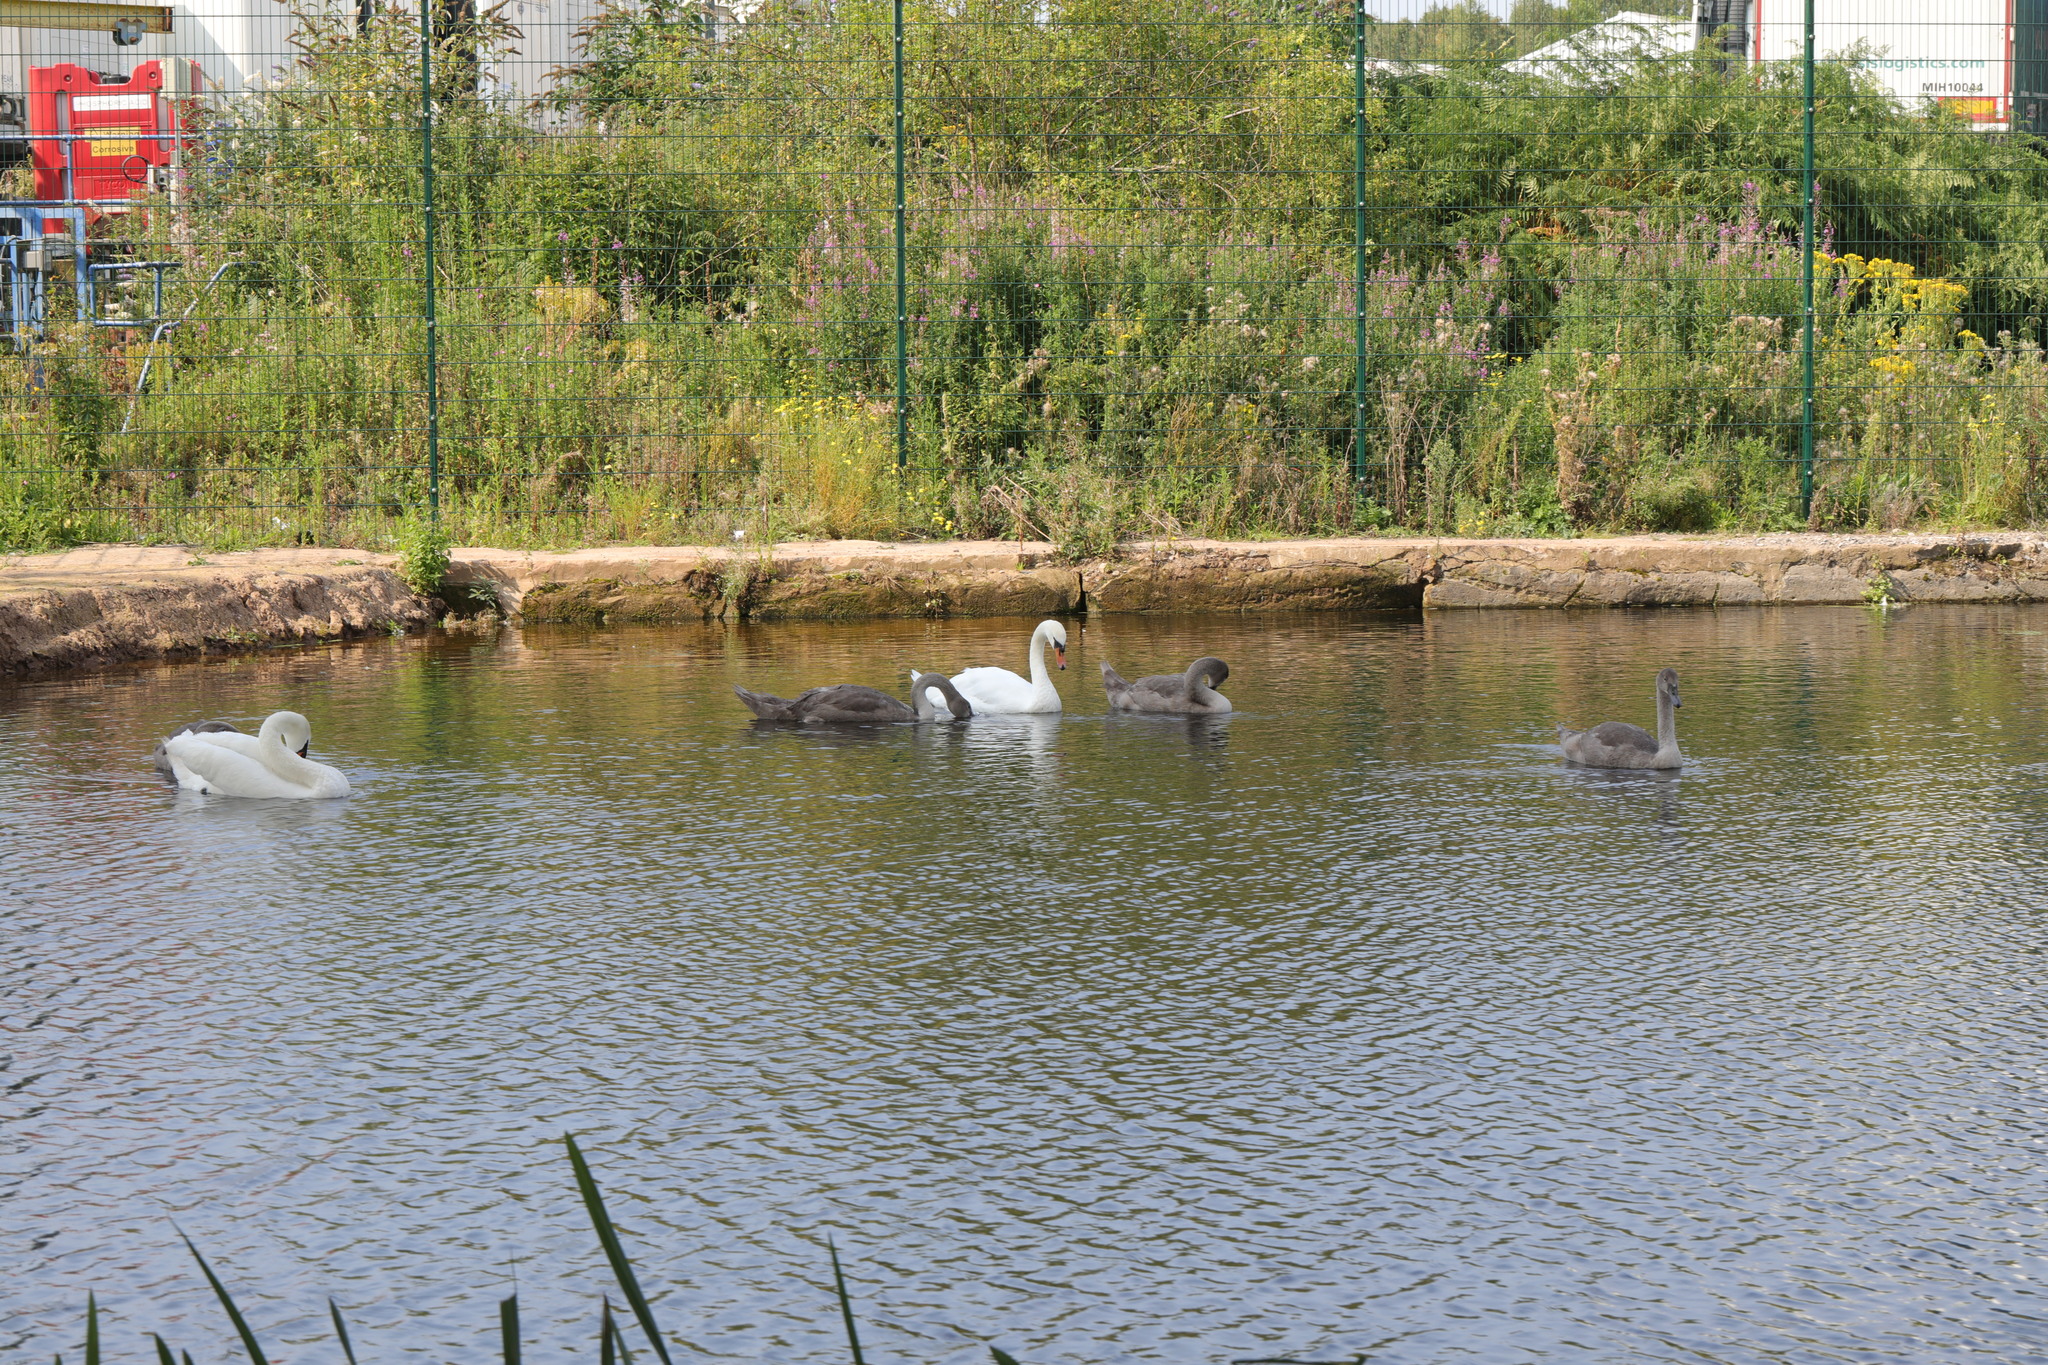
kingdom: Animalia
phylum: Chordata
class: Aves
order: Anseriformes
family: Anatidae
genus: Cygnus
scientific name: Cygnus olor
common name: Mute swan
